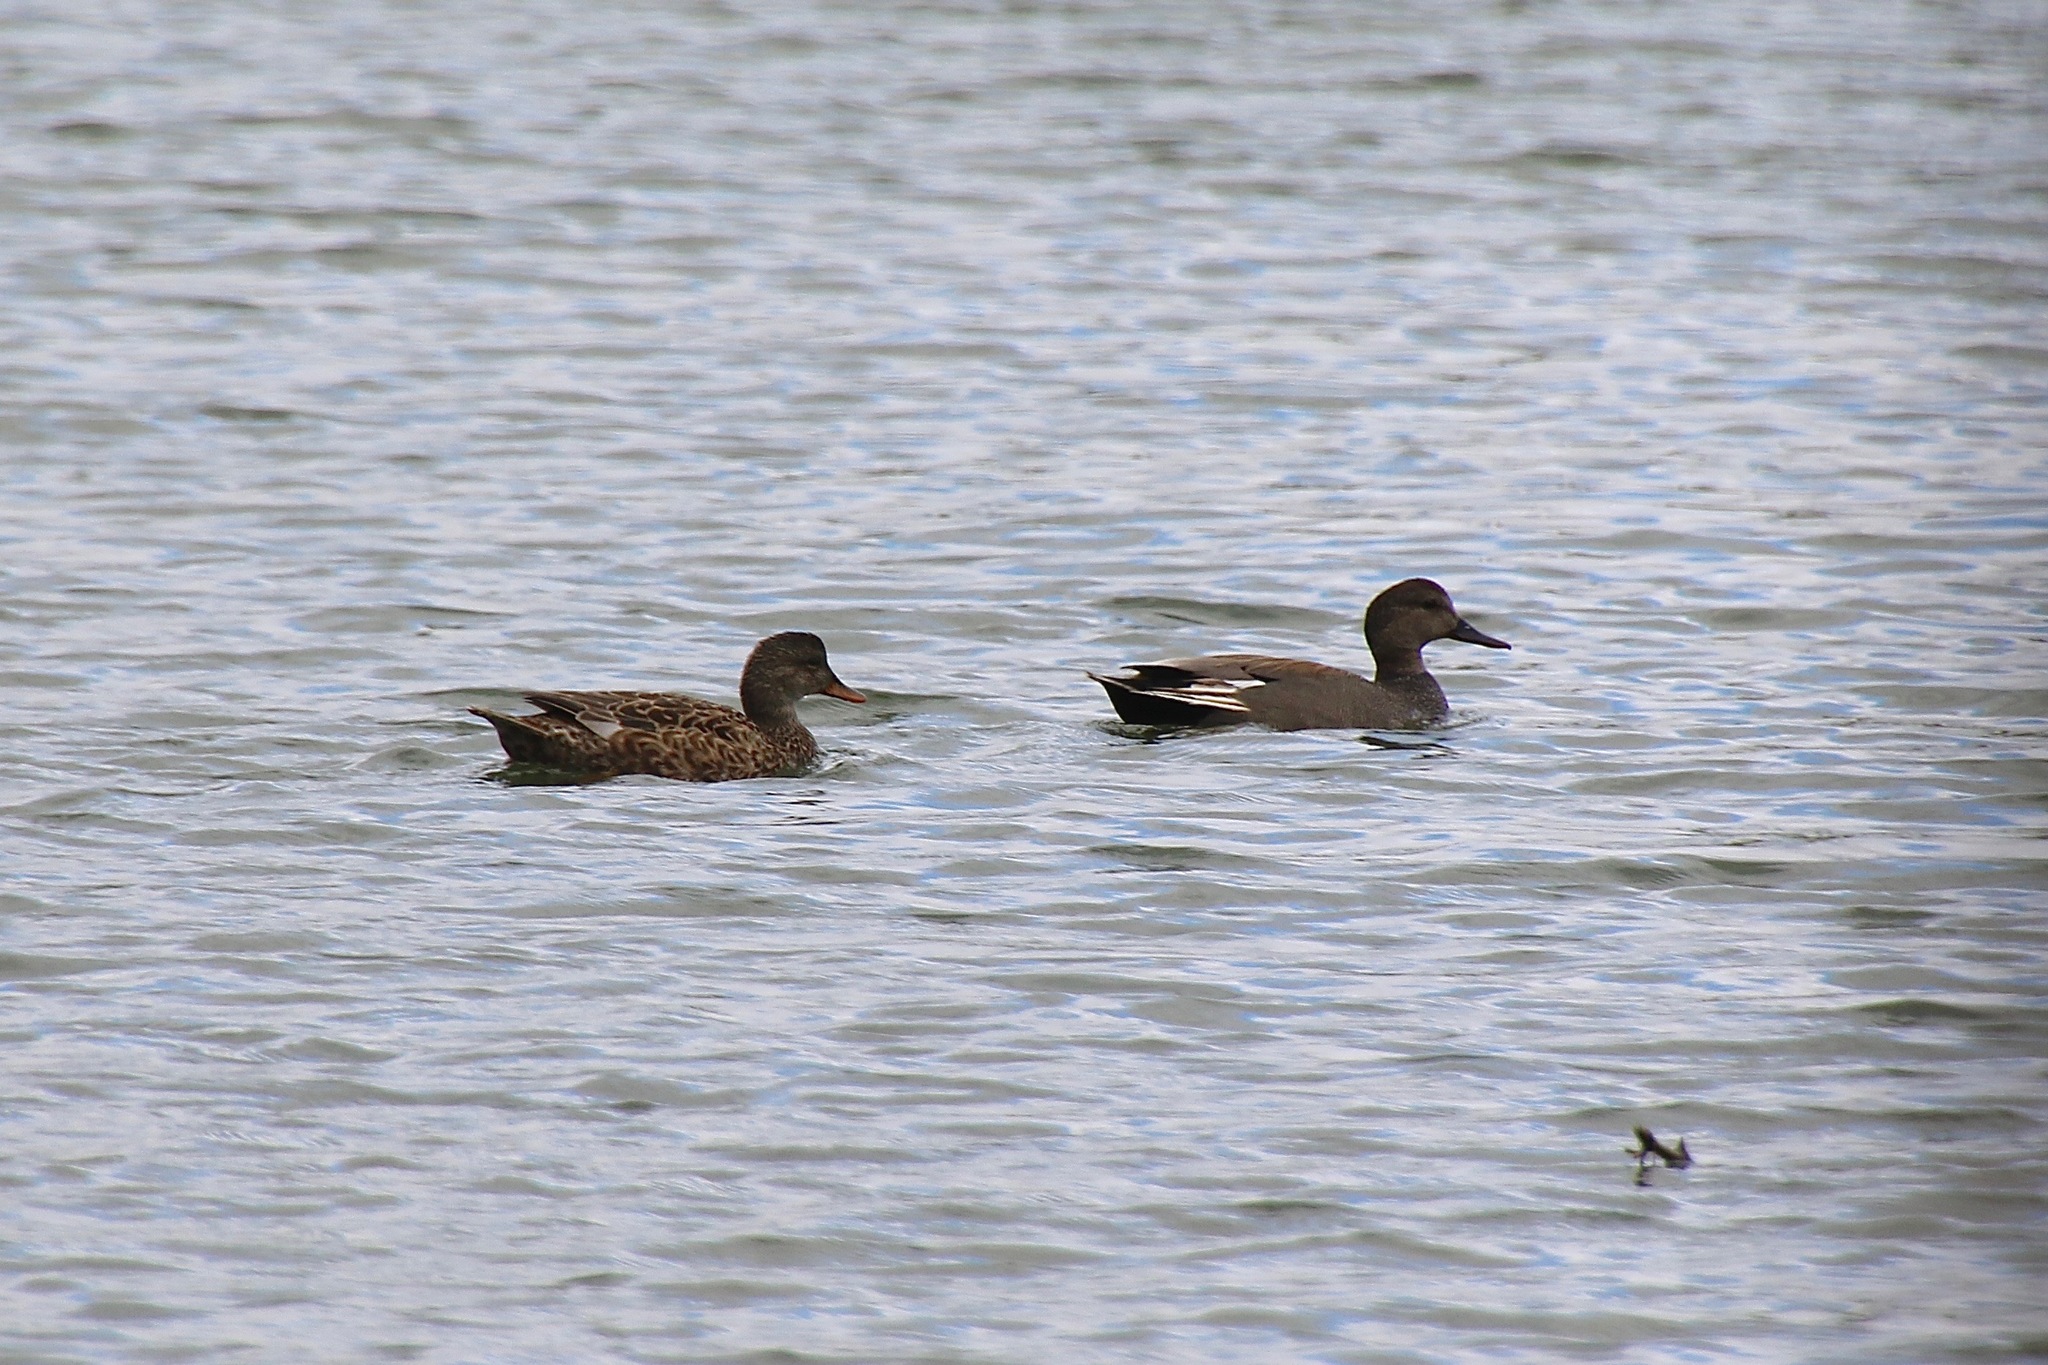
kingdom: Animalia
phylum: Chordata
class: Aves
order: Anseriformes
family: Anatidae
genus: Mareca
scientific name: Mareca strepera
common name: Gadwall
